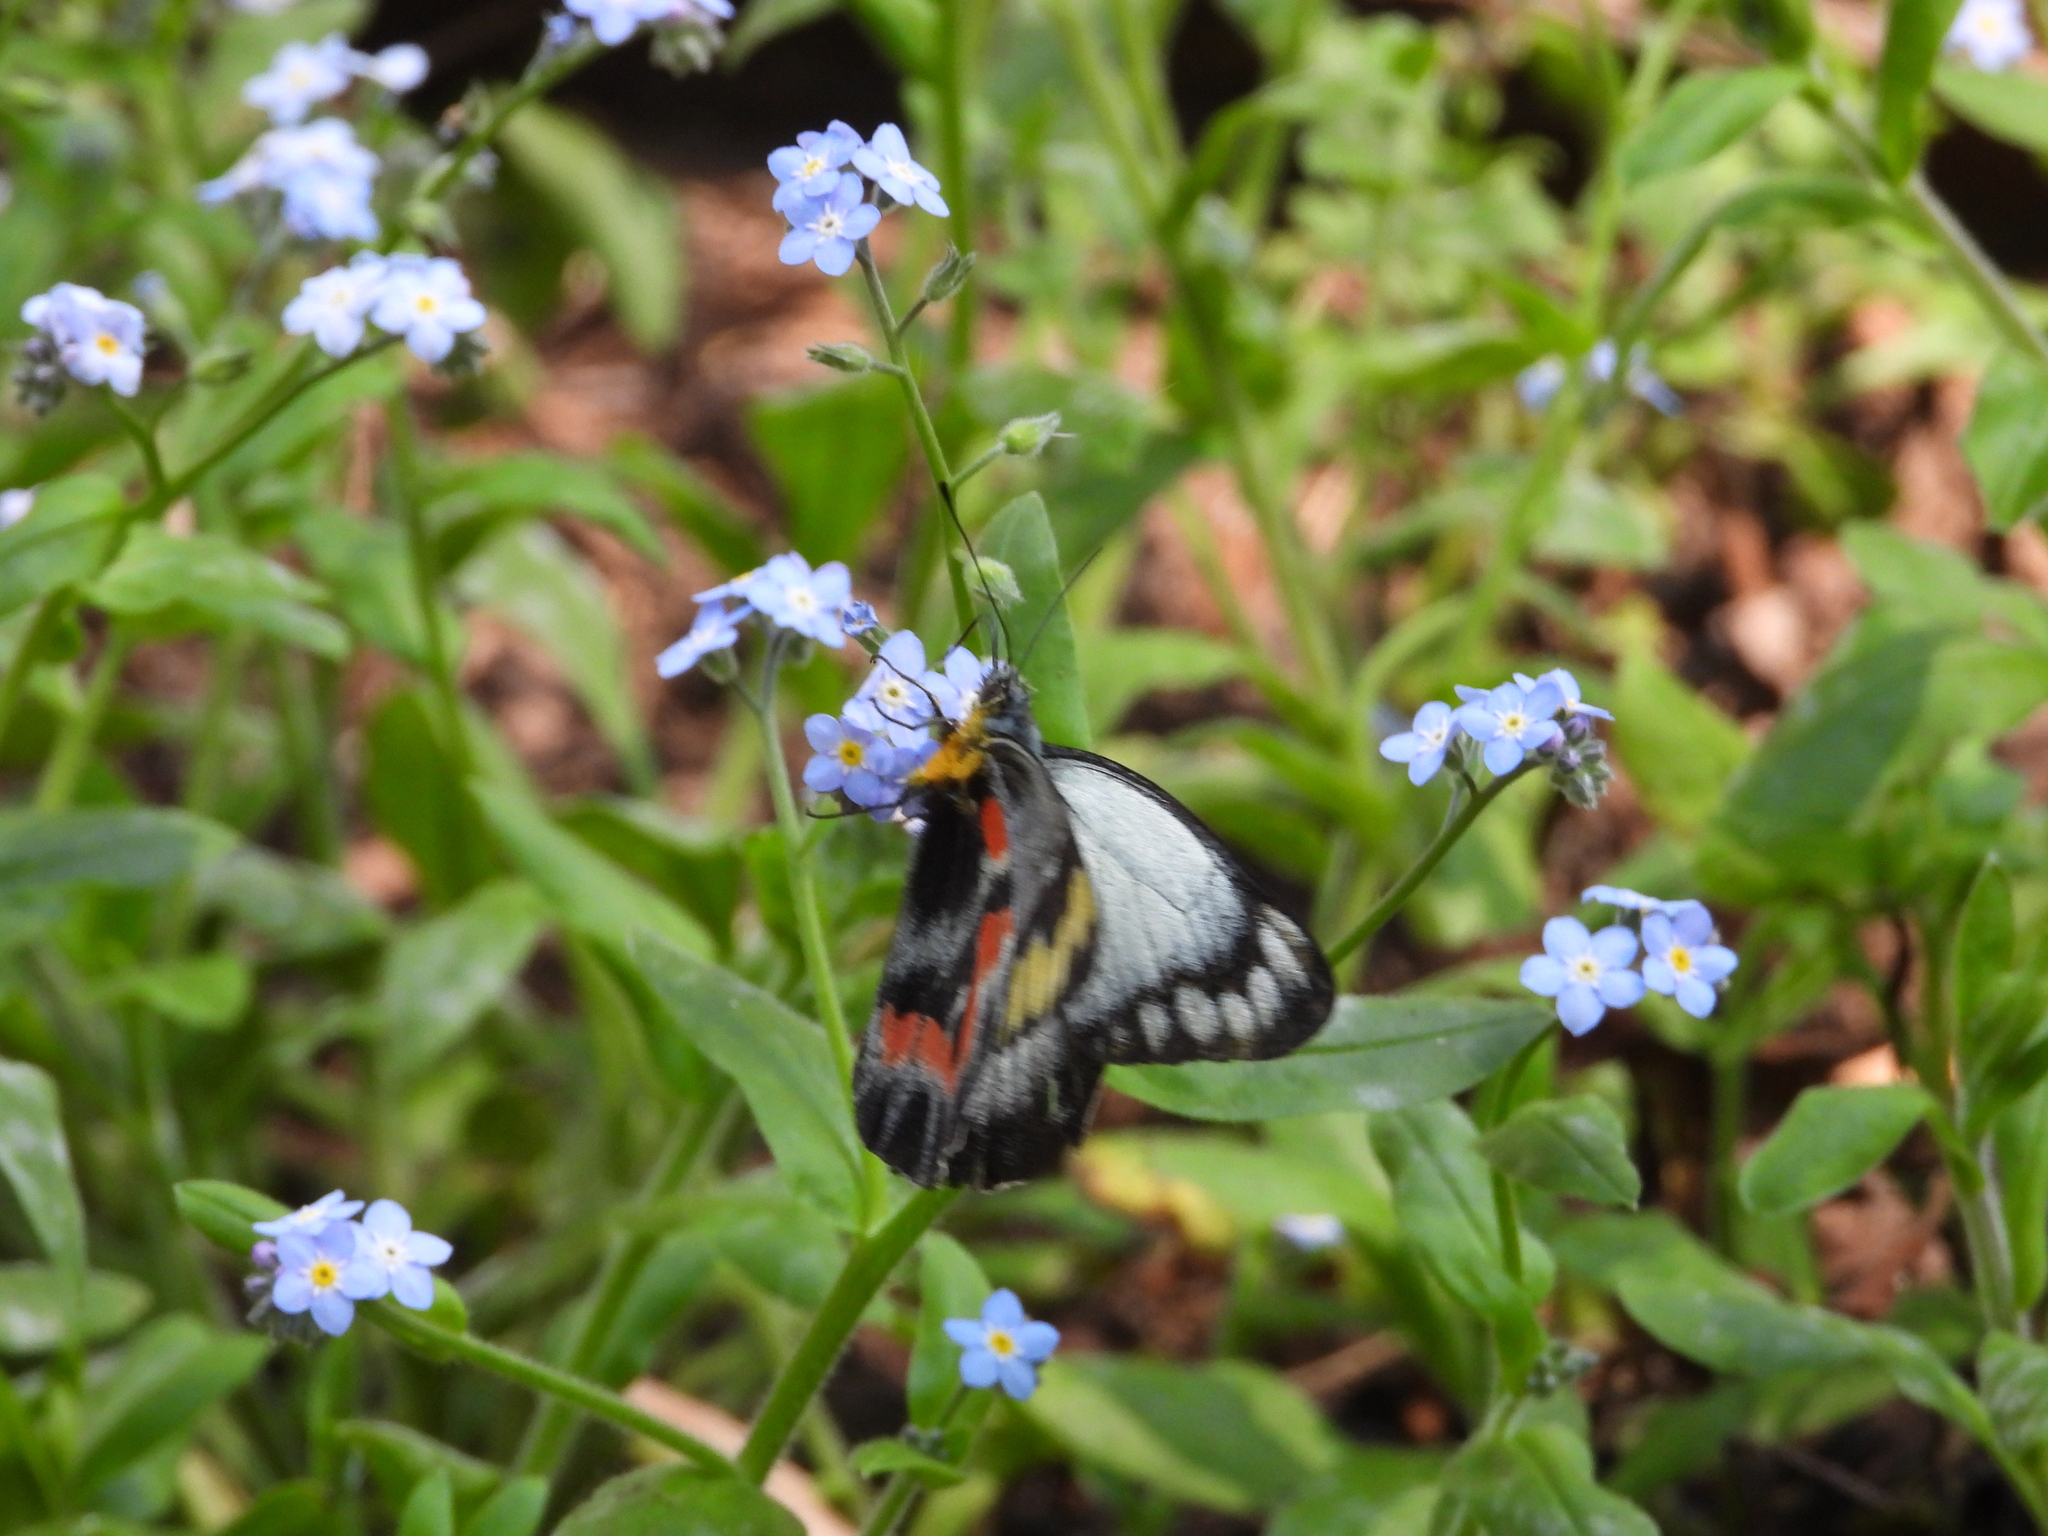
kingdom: Animalia
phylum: Arthropoda
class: Insecta
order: Lepidoptera
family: Pieridae
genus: Delias
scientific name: Delias harpalyce
